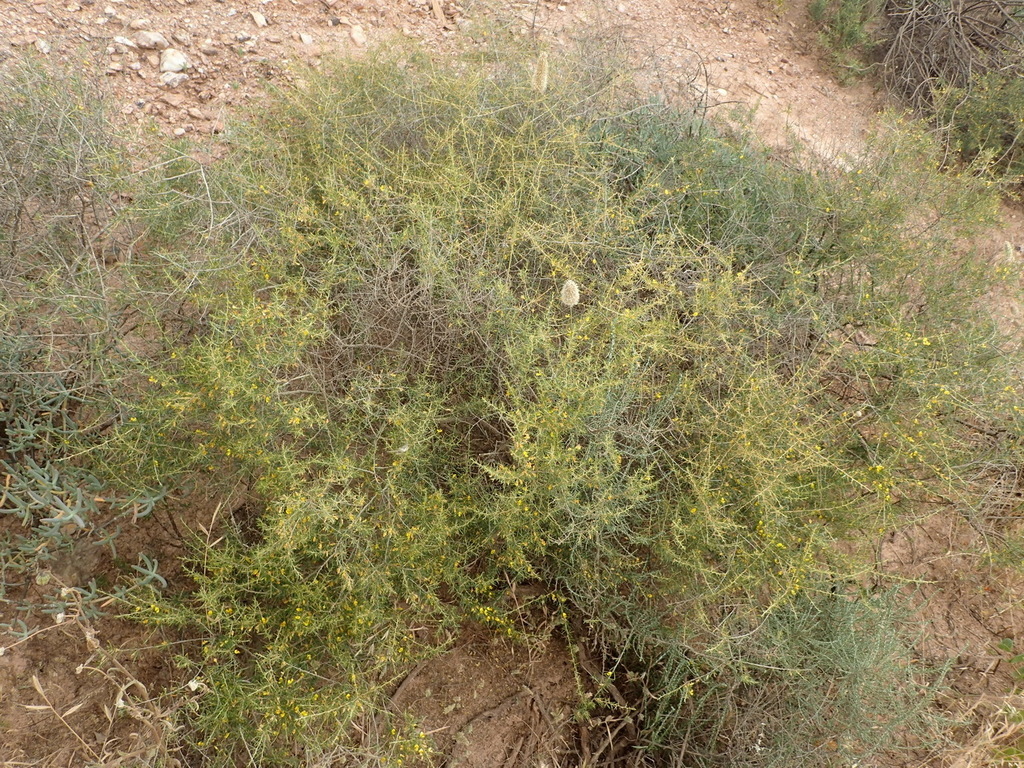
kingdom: Plantae
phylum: Tracheophyta
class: Magnoliopsida
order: Fabales
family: Fabaceae
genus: Aspalathus
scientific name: Aspalathus spinescens
